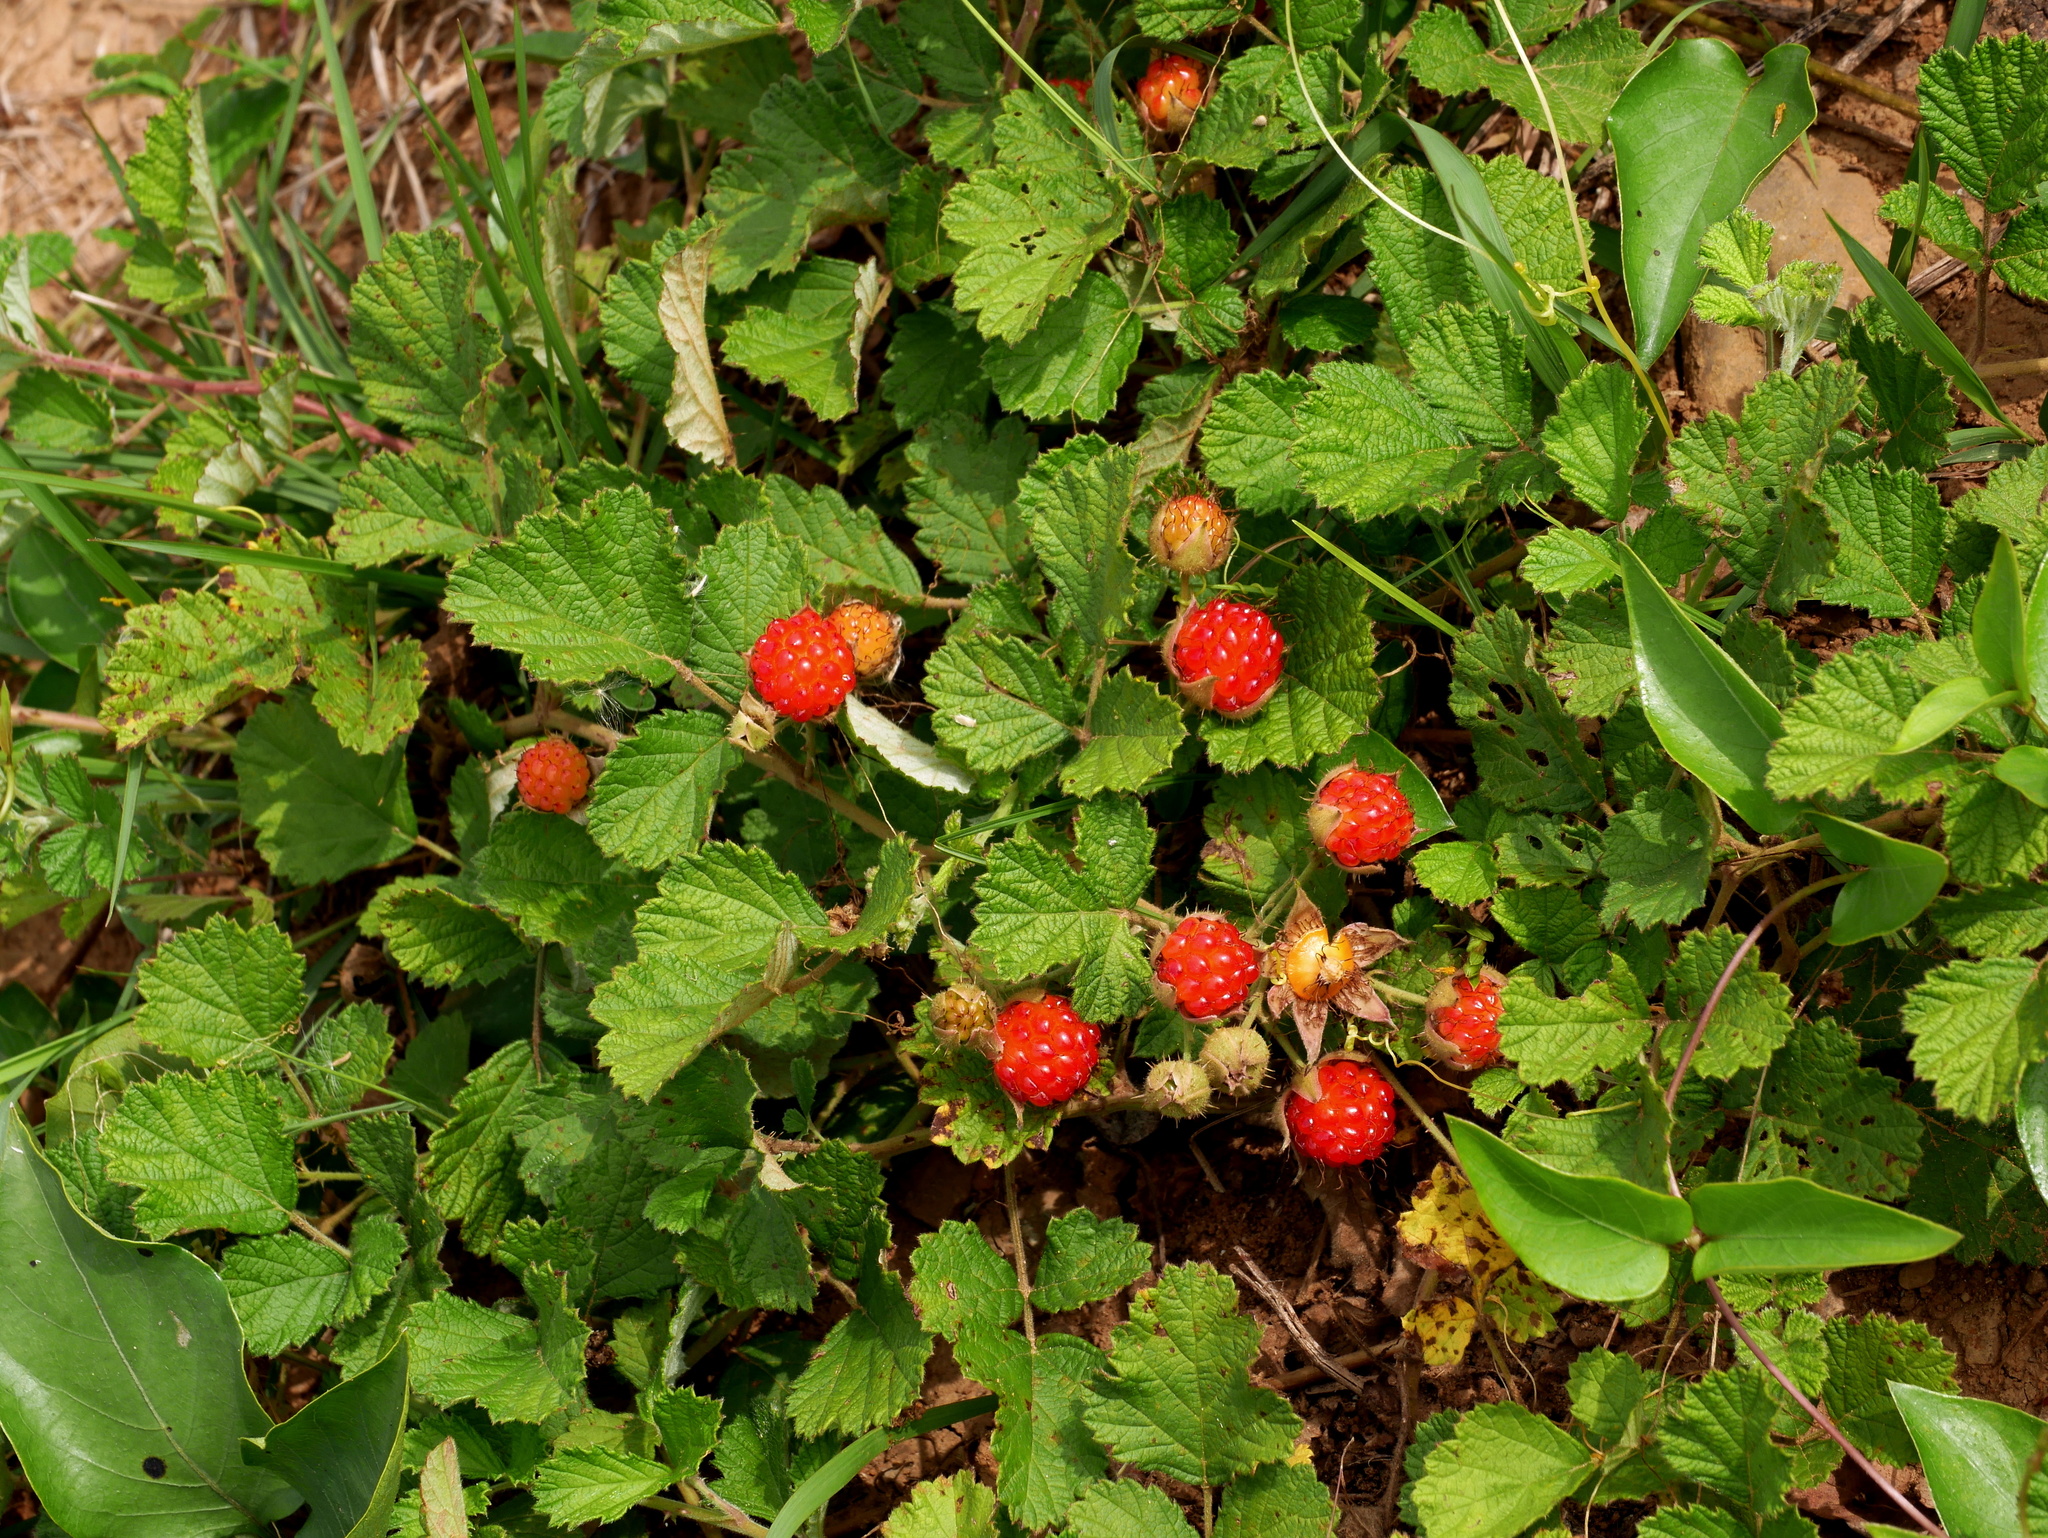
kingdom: Plantae
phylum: Tracheophyta
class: Magnoliopsida
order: Rosales
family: Rosaceae
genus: Rubus
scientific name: Rubus parvifolius
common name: Threeleaf blackberry
